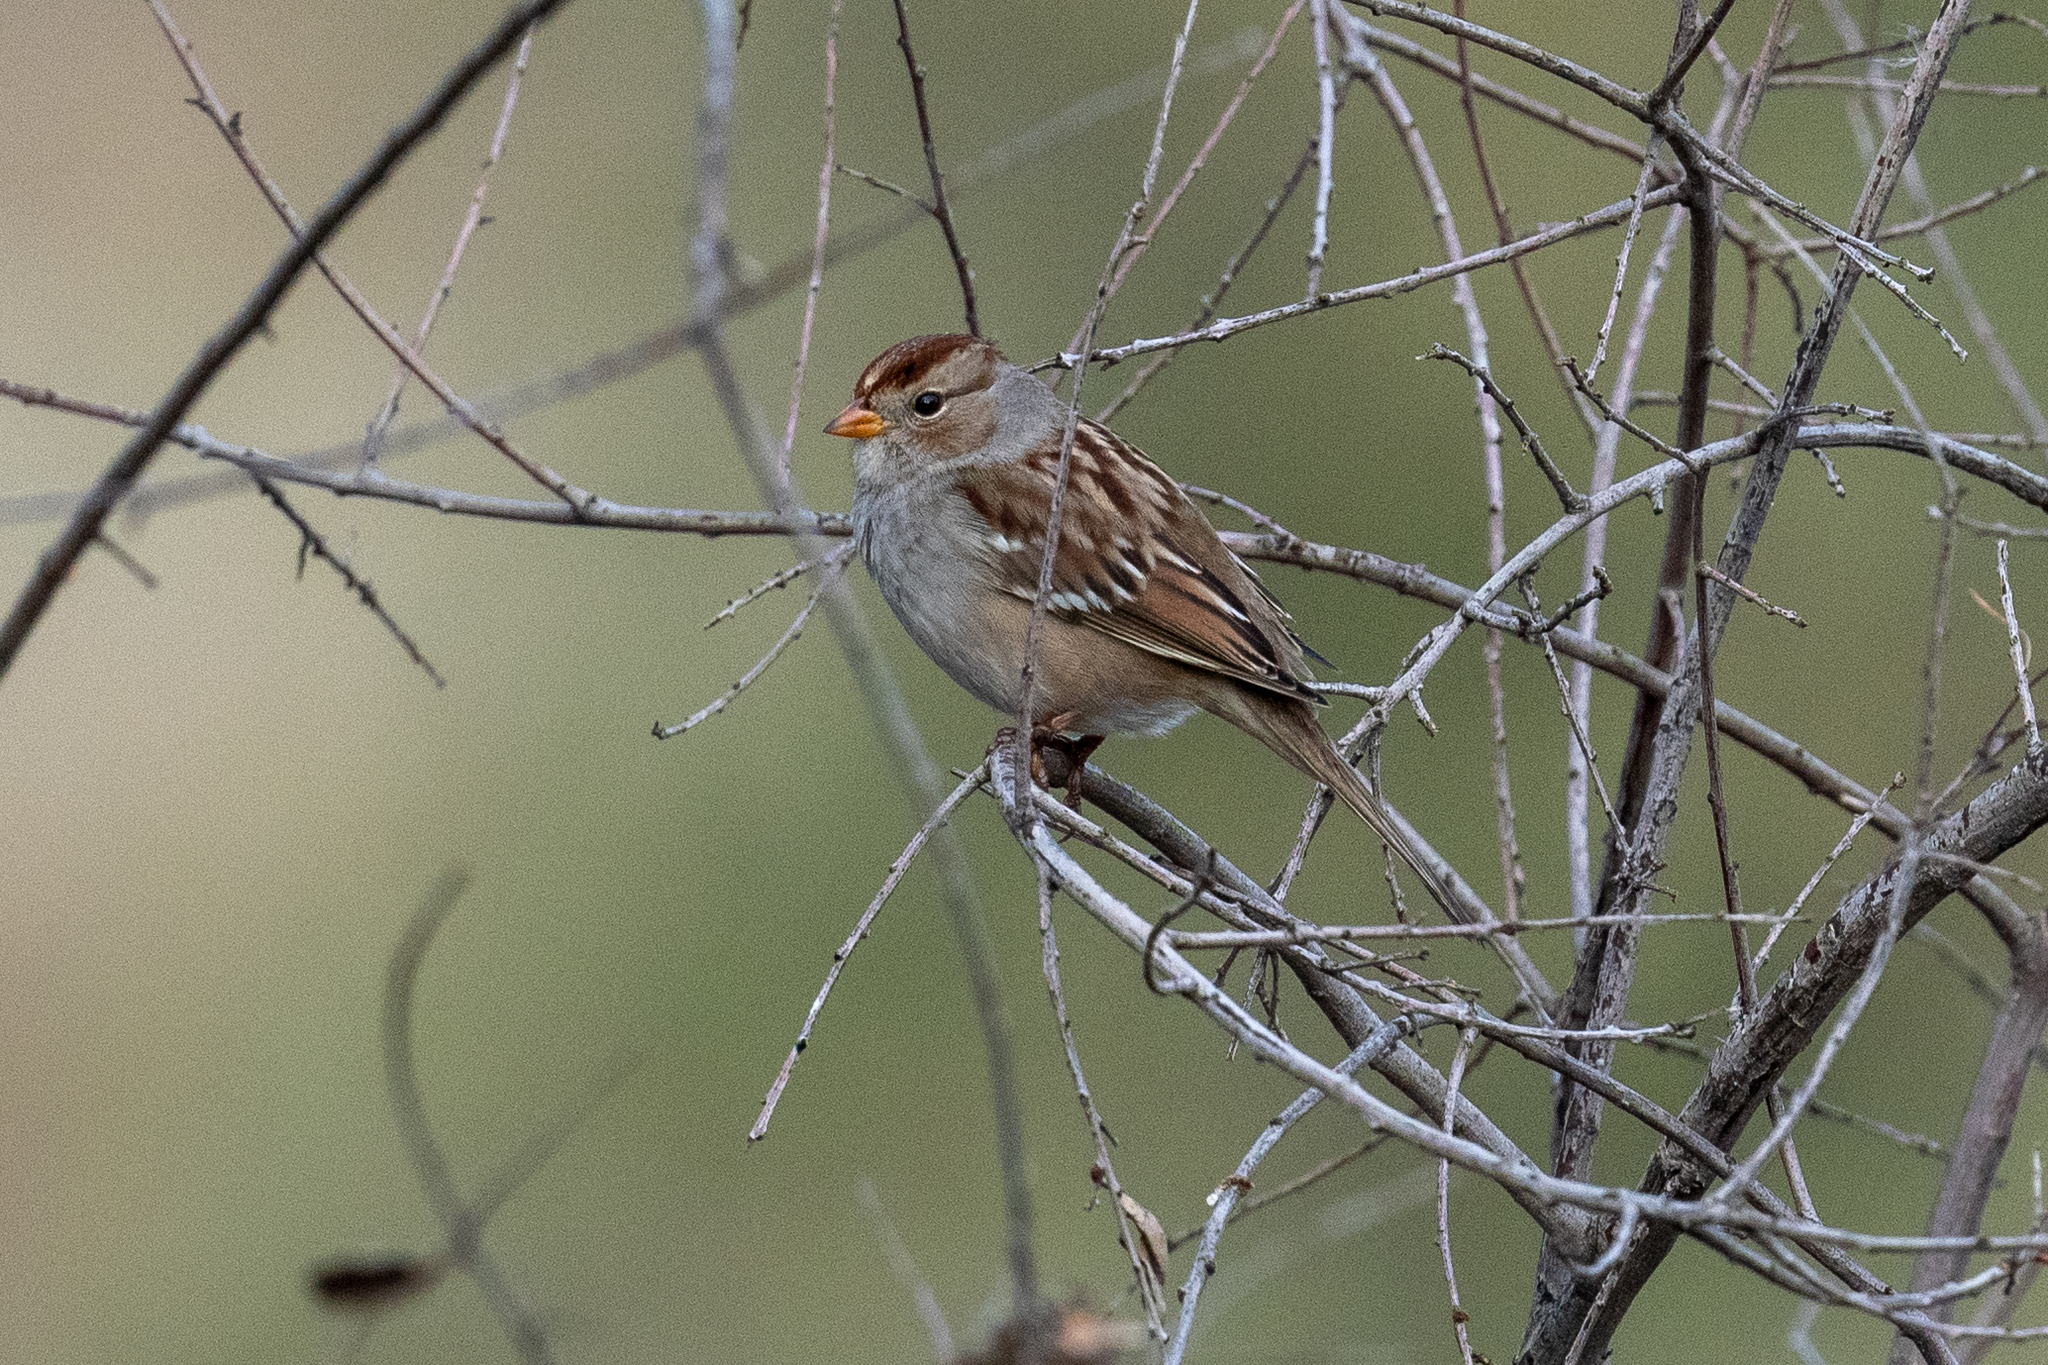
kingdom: Animalia
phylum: Chordata
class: Aves
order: Passeriformes
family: Passerellidae
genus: Zonotrichia
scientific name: Zonotrichia leucophrys
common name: White-crowned sparrow
